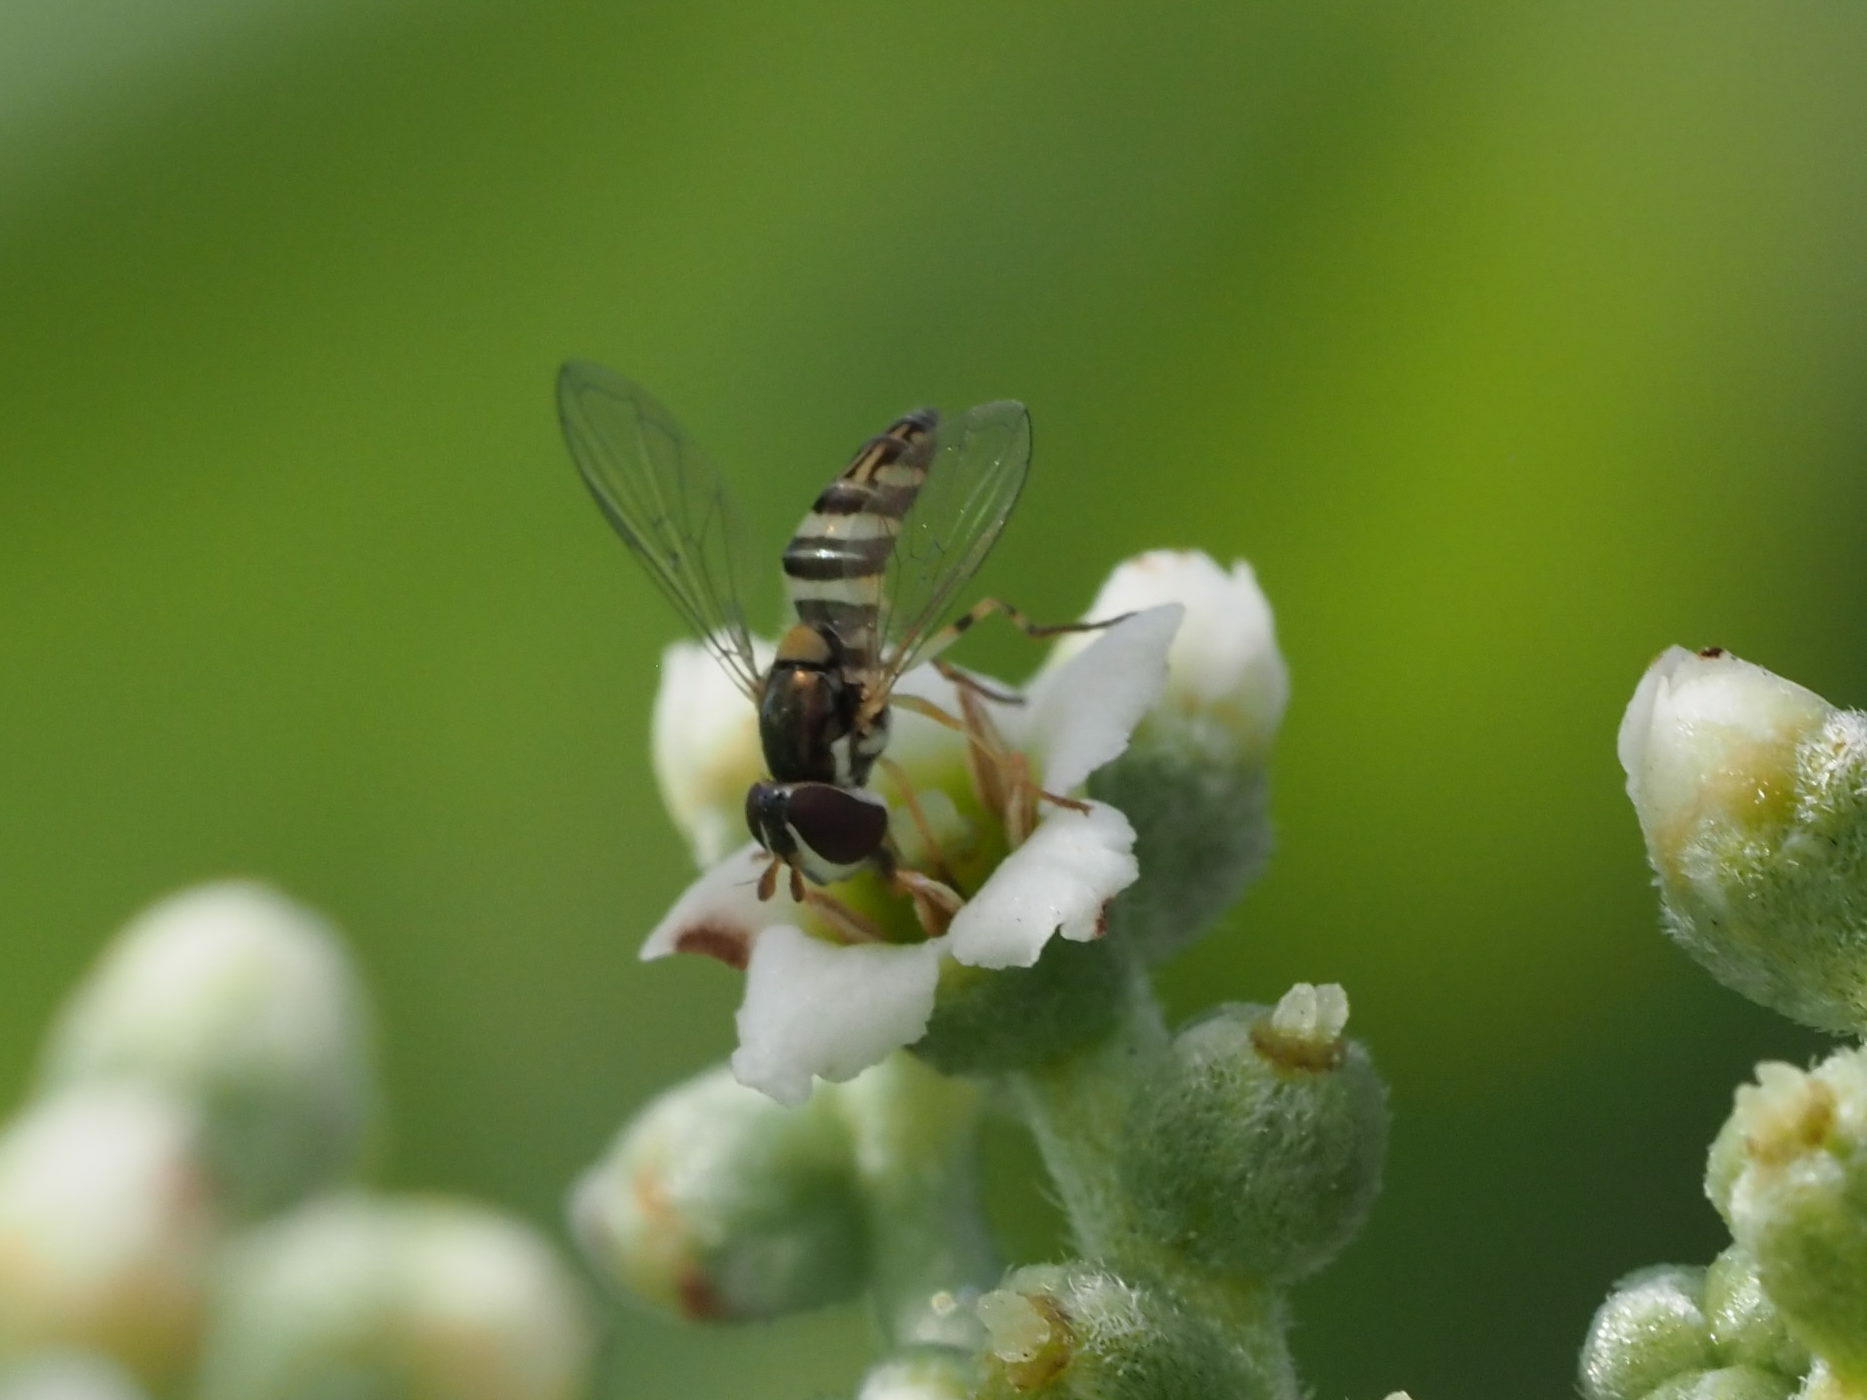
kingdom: Animalia
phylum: Arthropoda
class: Insecta
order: Diptera
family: Syrphidae
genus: Allograpta
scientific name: Allograpta exotica
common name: Syrphid fly
